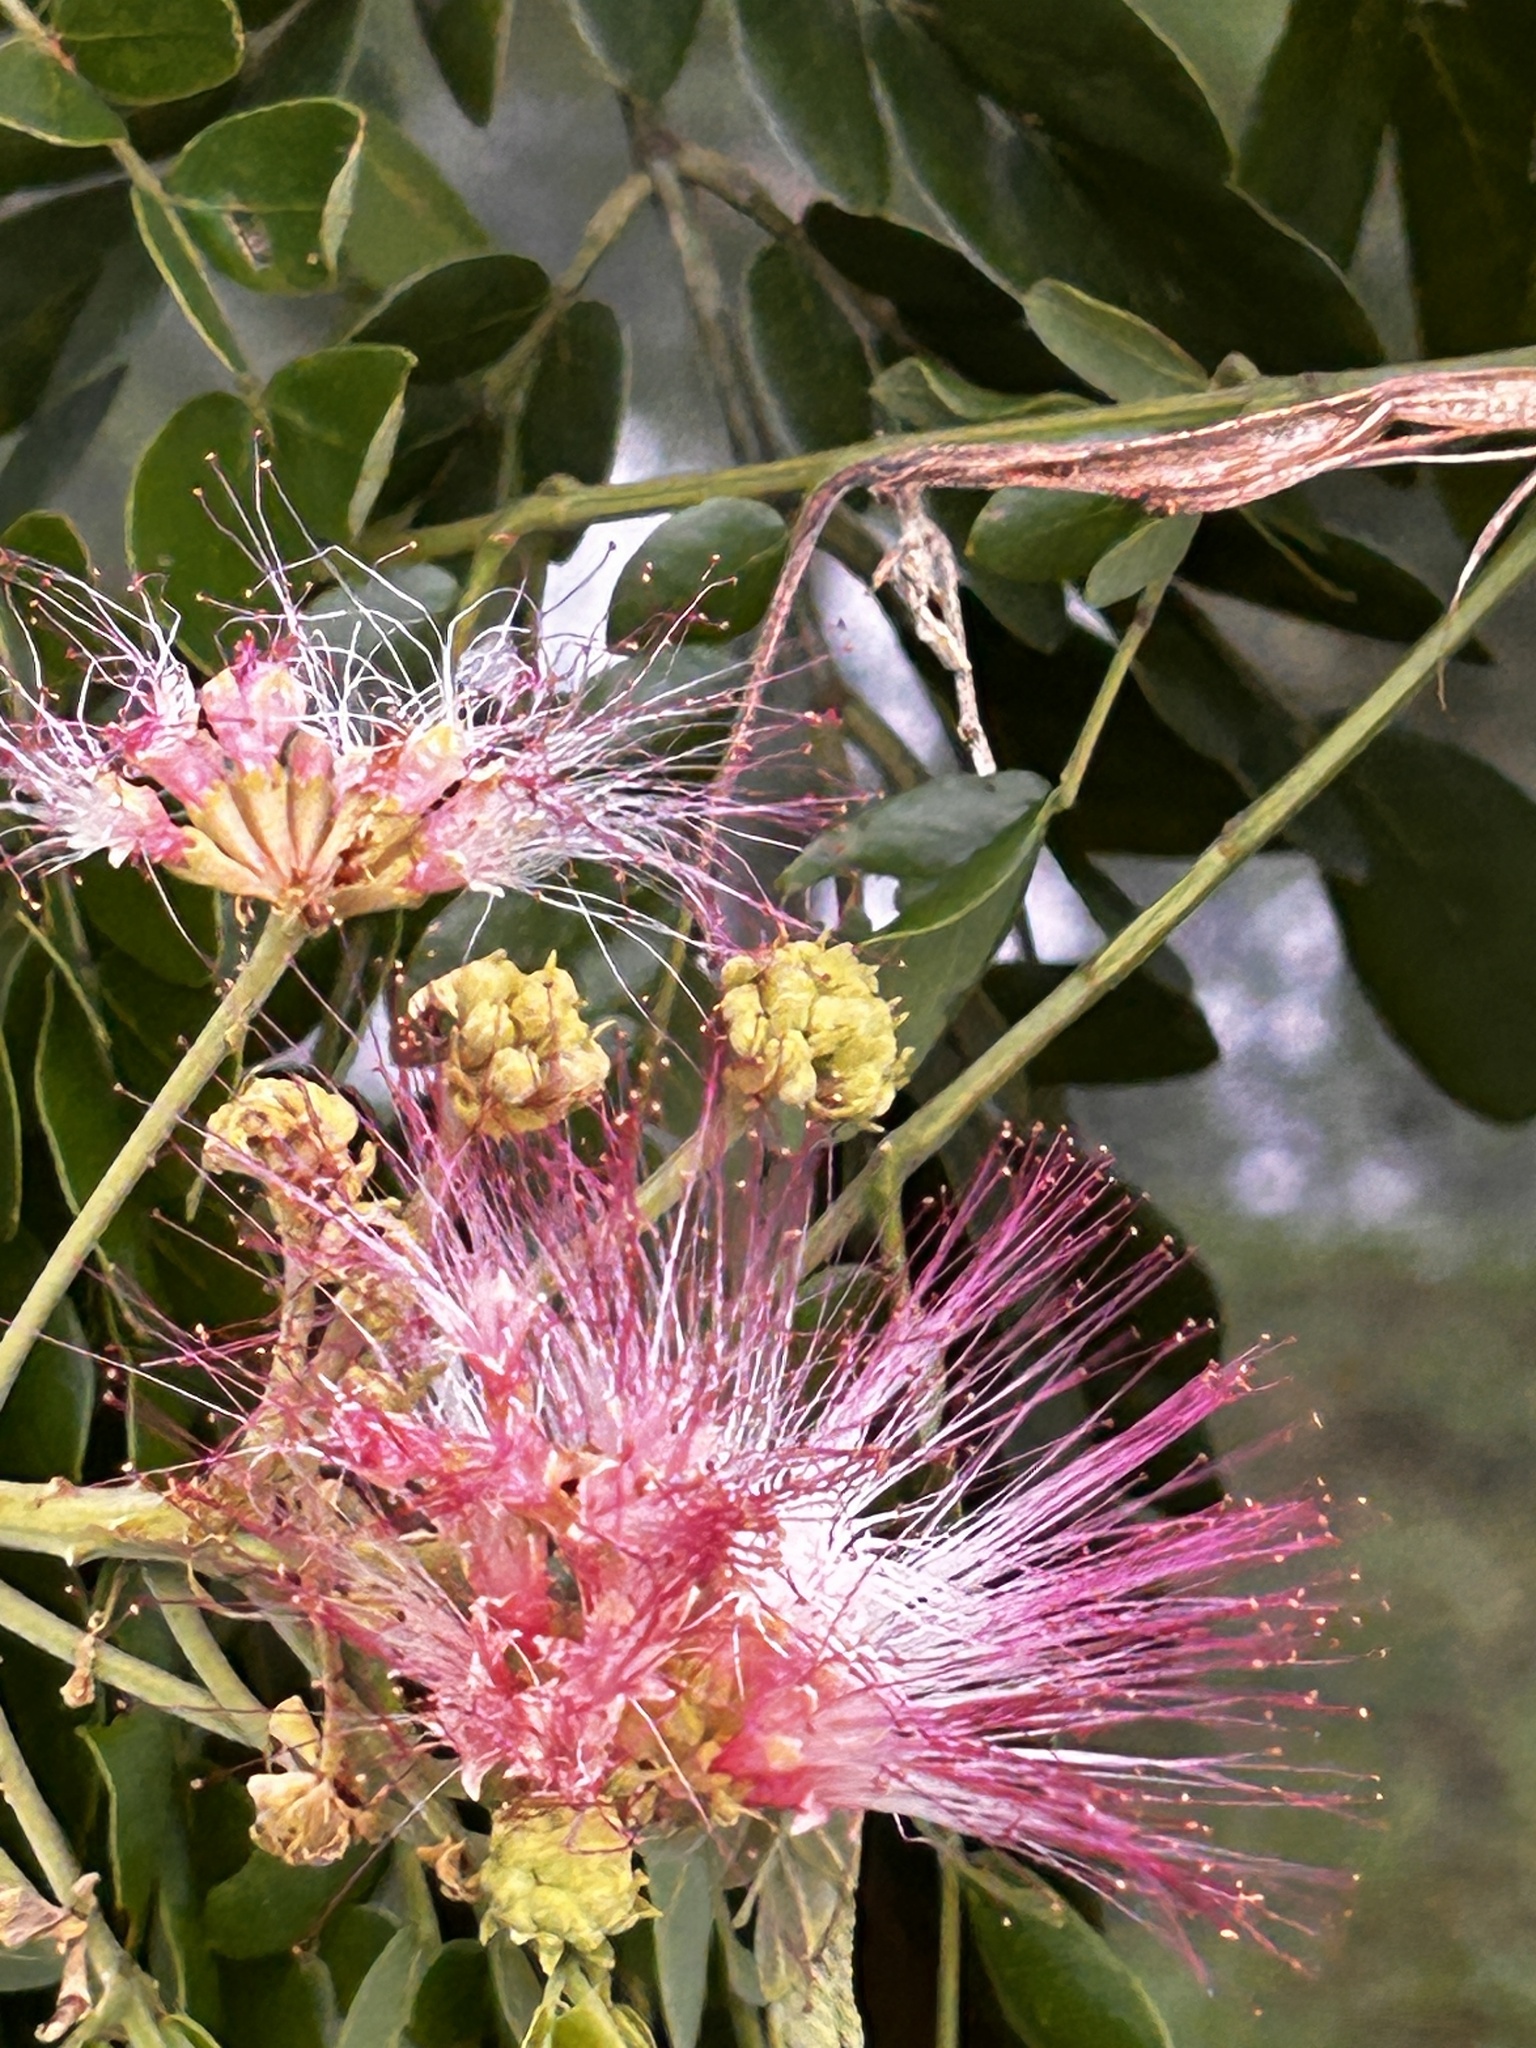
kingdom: Plantae
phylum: Tracheophyta
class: Magnoliopsida
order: Fabales
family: Fabaceae
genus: Samanea
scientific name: Samanea saman
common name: Raintree
